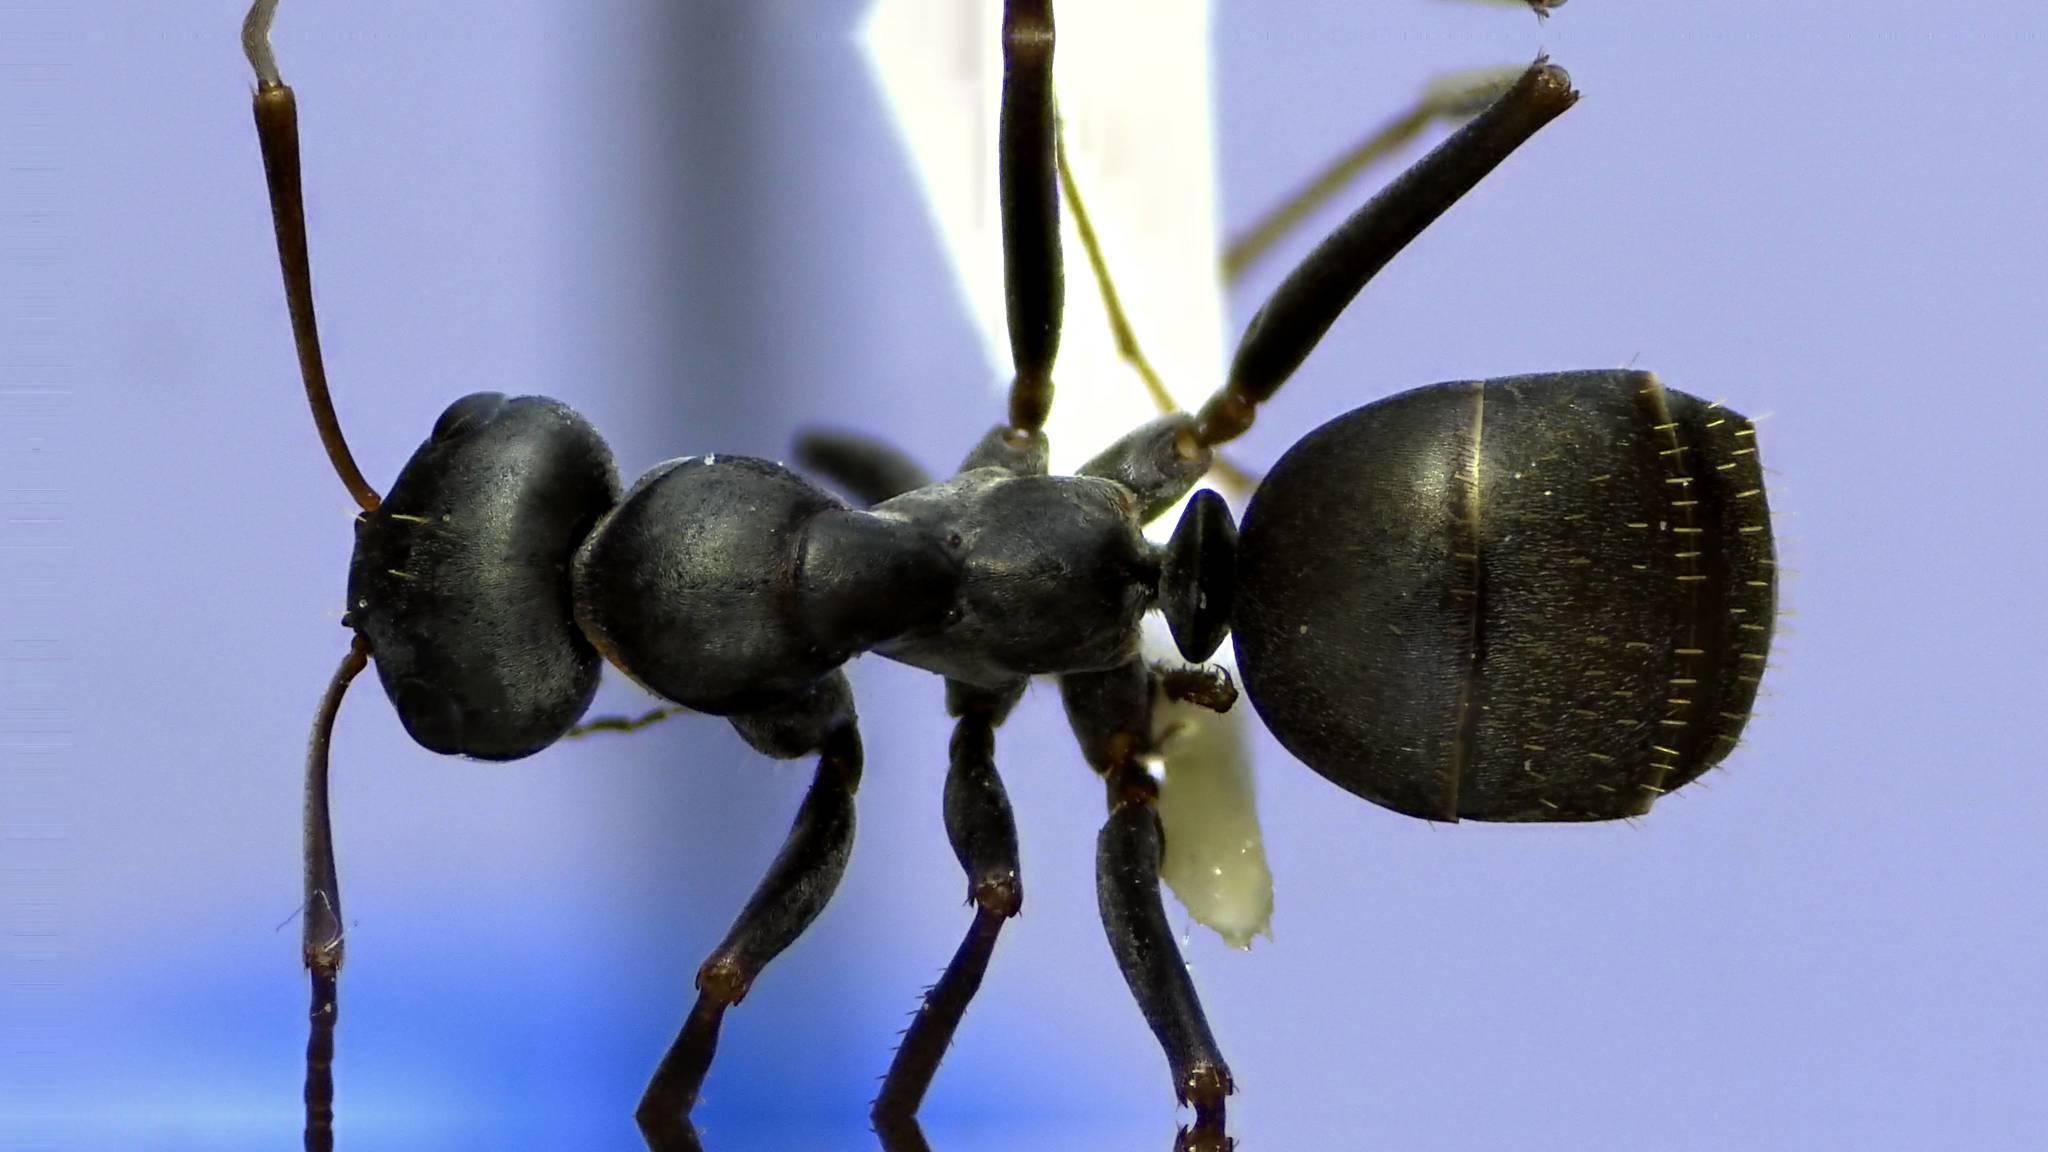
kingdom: Animalia
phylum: Arthropoda
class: Insecta
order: Hymenoptera
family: Formicidae
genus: Formica
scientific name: Formica subsericea
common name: Silky field ant
